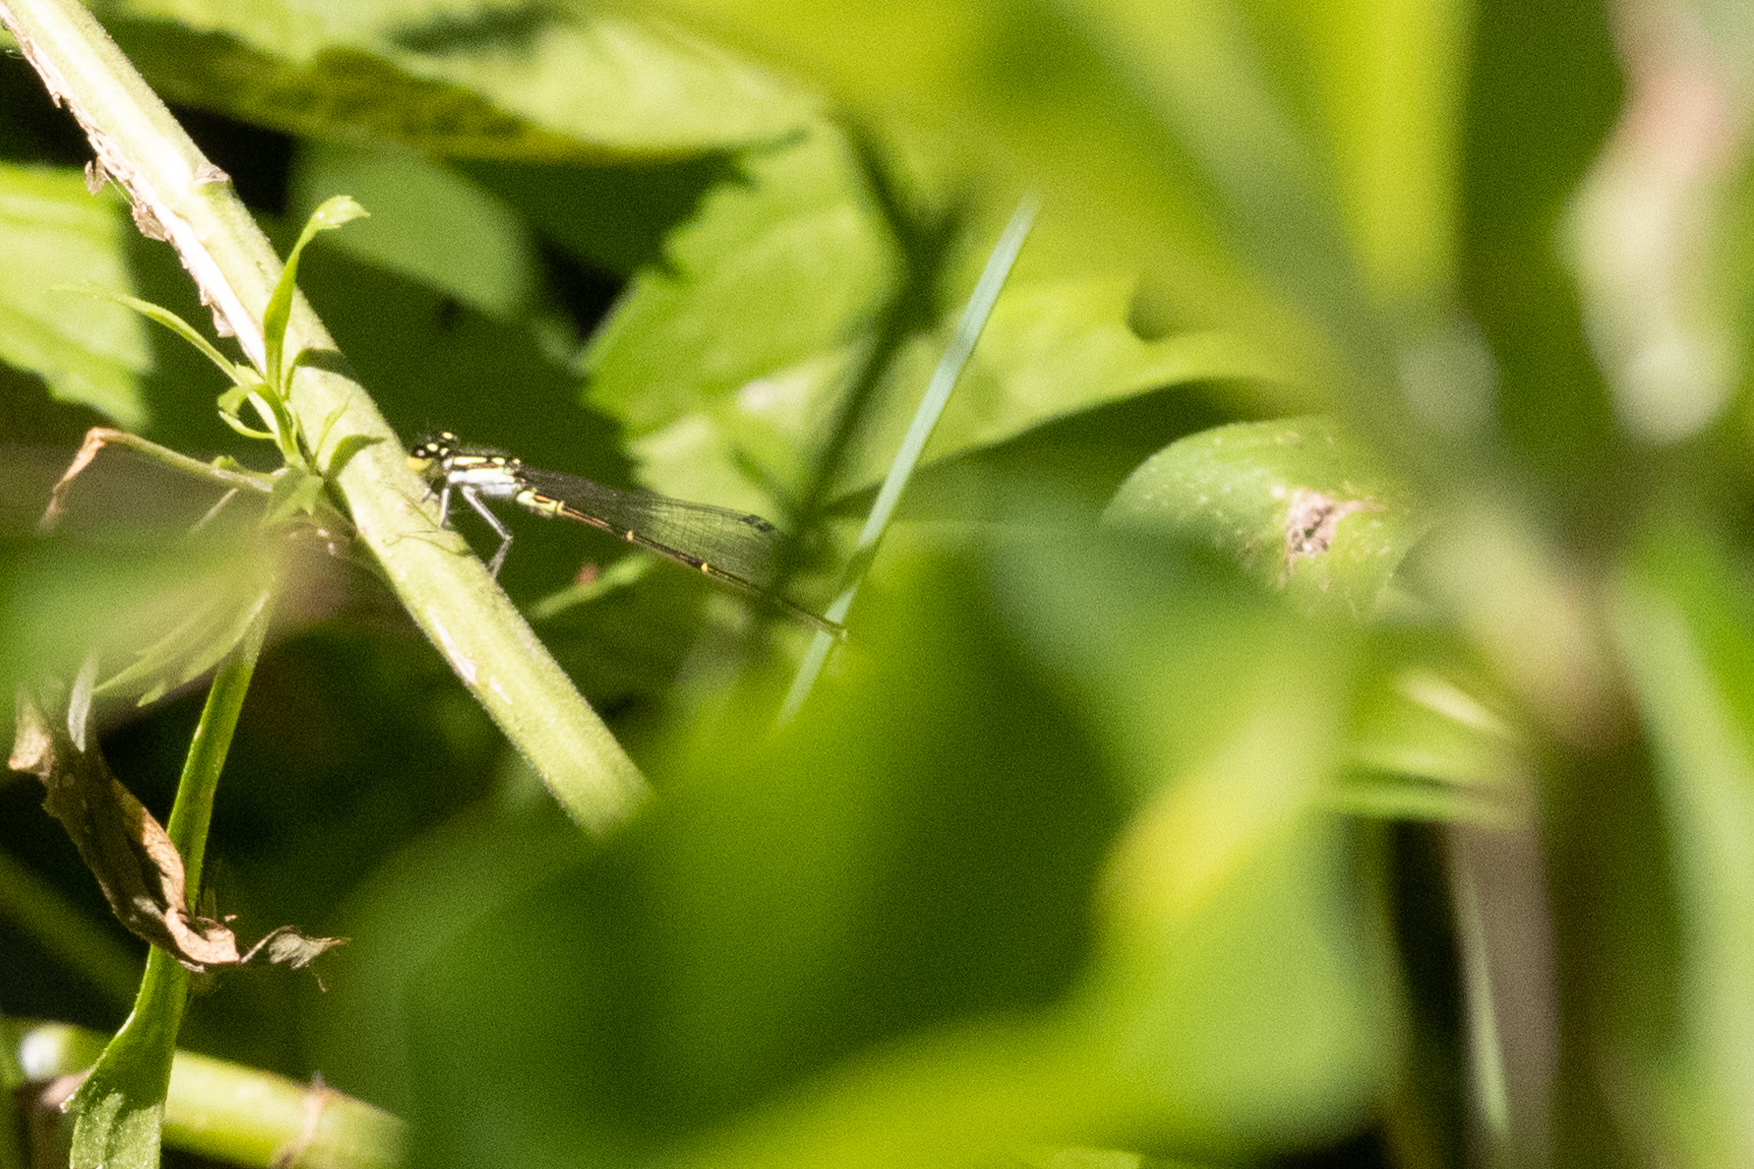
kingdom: Animalia
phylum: Arthropoda
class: Insecta
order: Odonata
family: Coenagrionidae
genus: Ischnura
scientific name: Ischnura posita
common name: Fragile forktail
